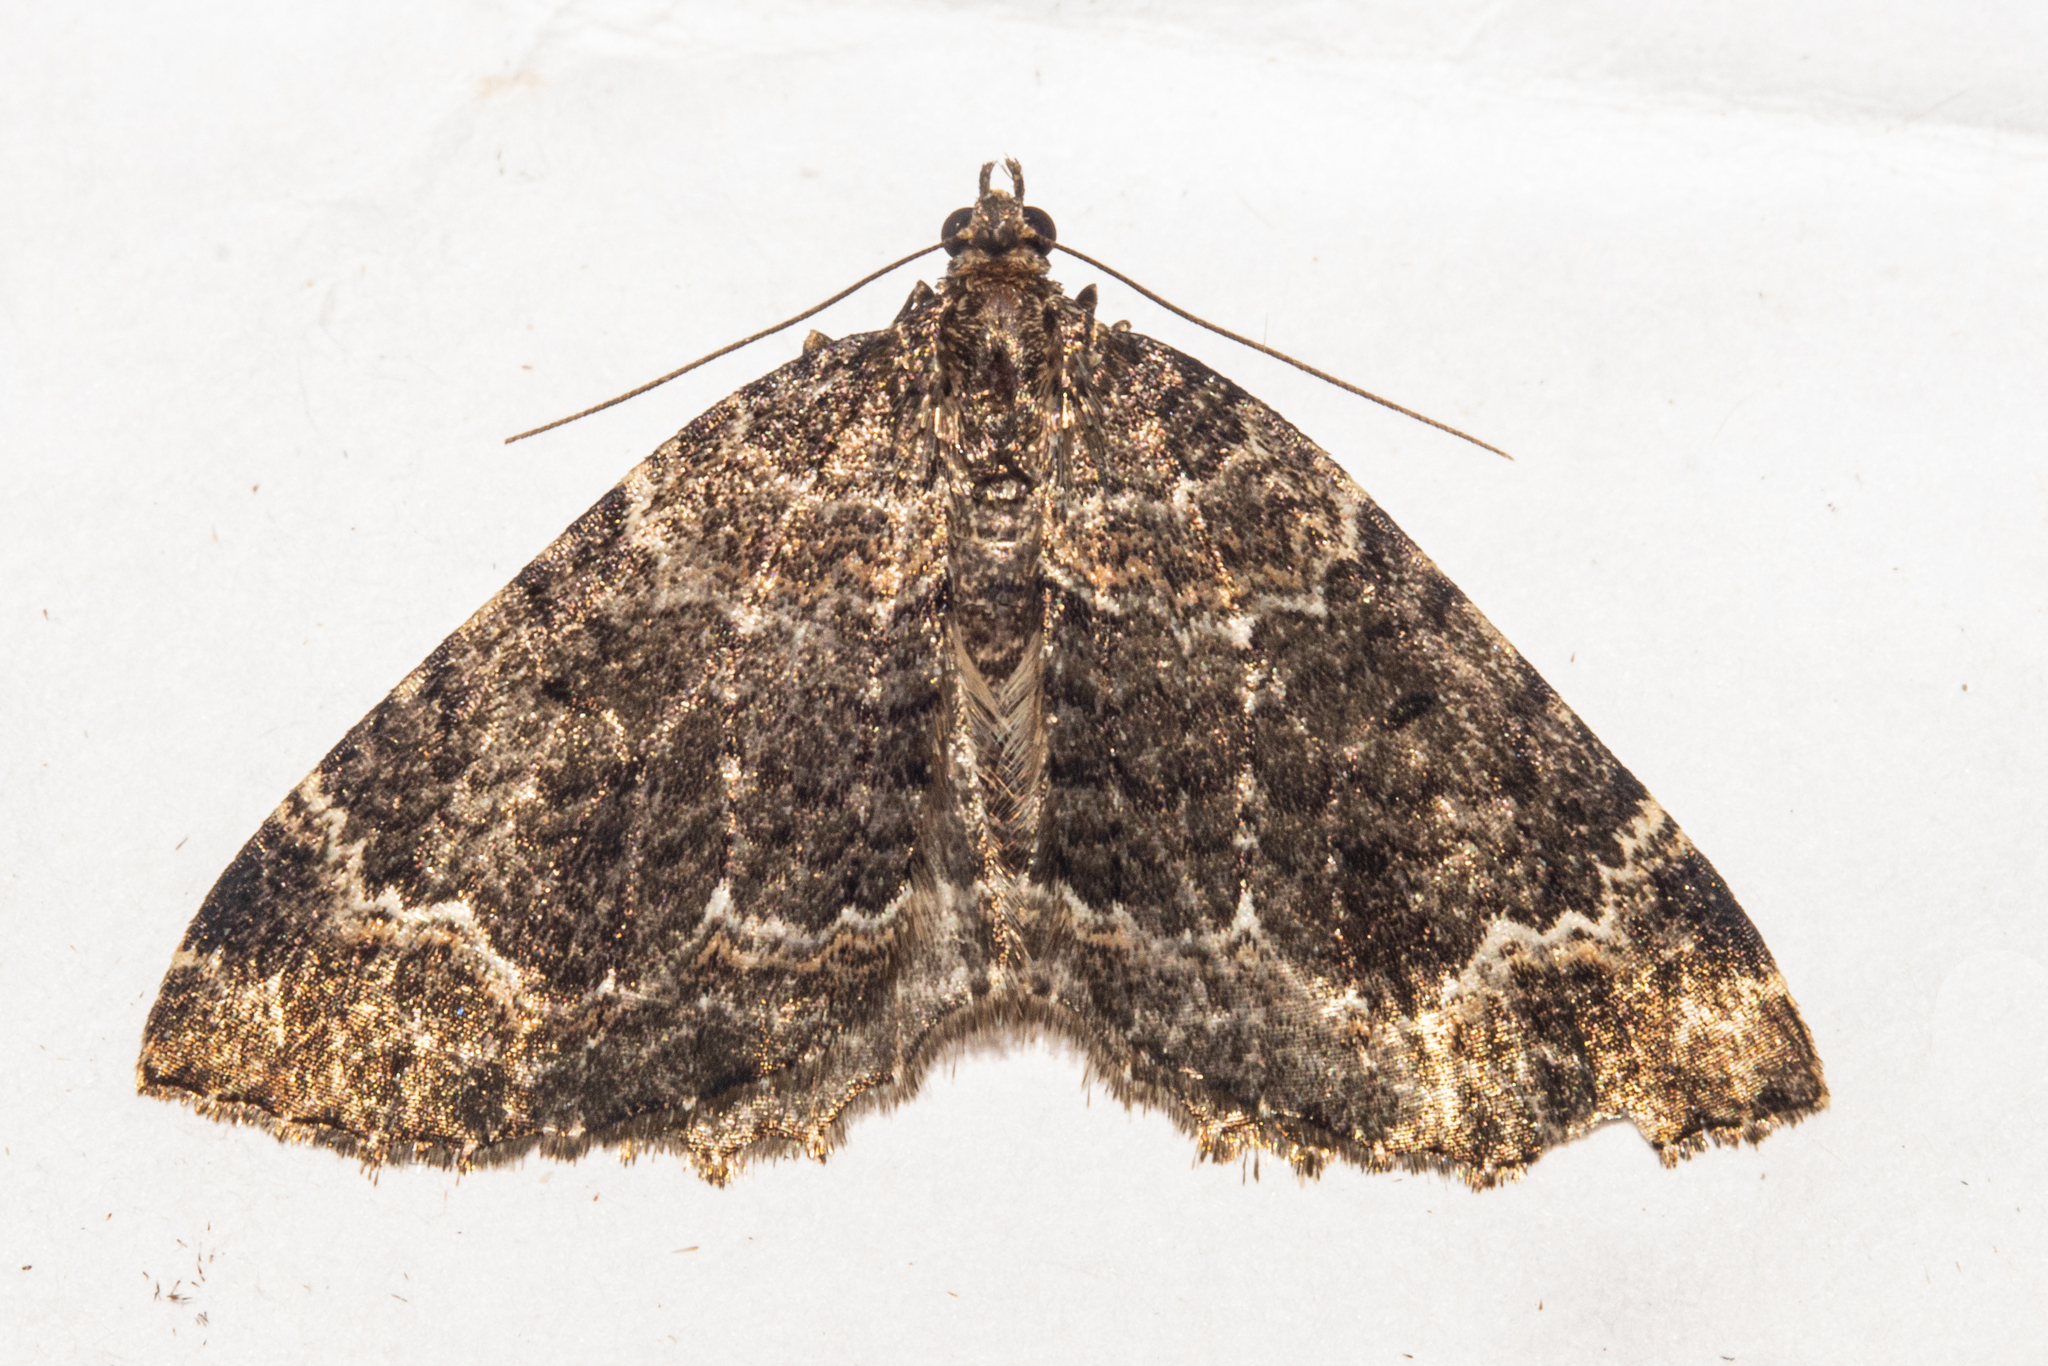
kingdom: Animalia
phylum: Arthropoda
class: Insecta
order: Lepidoptera
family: Geometridae
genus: Hydriomena
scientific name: Hydriomena hemizona
